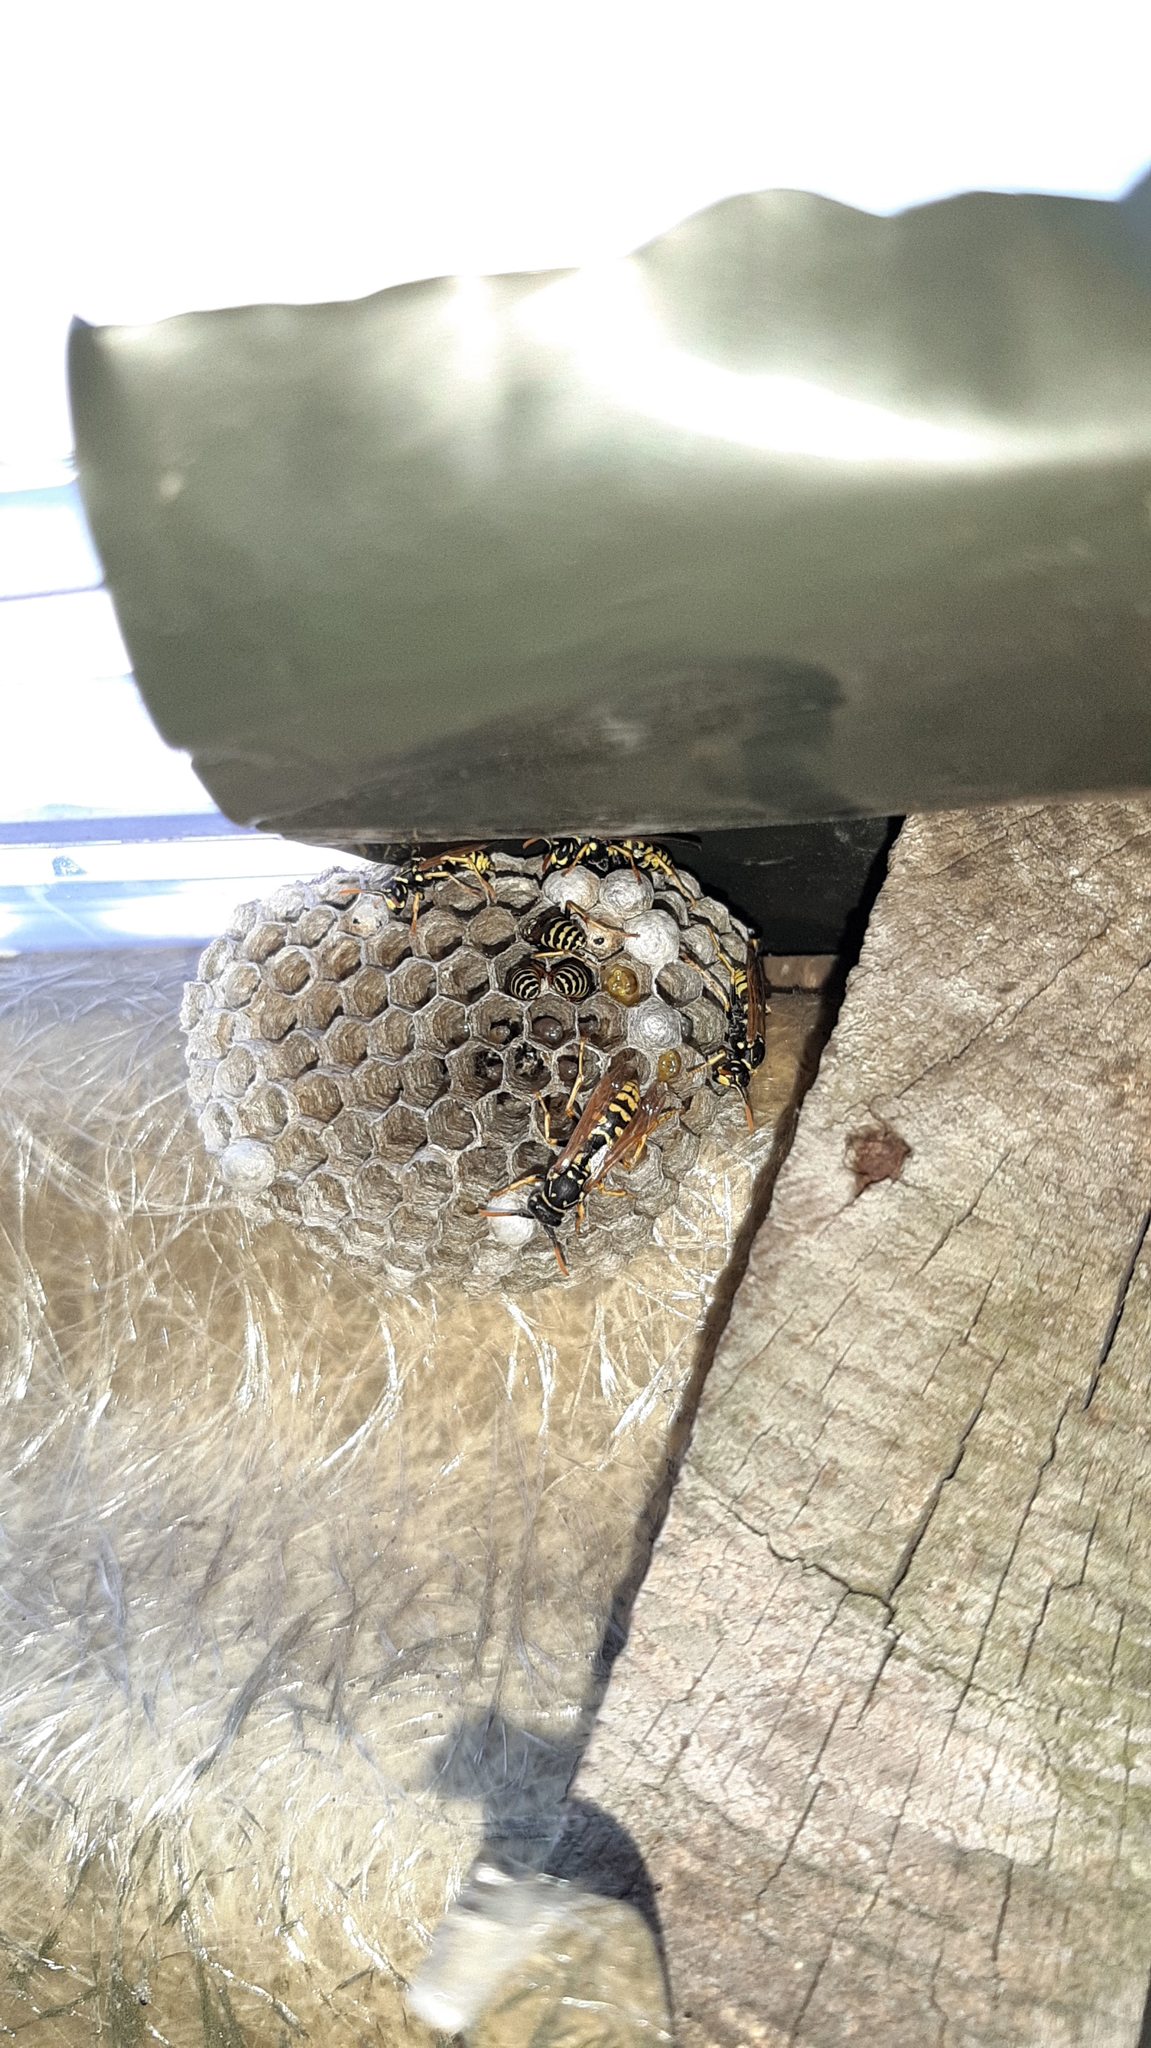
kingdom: Animalia
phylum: Arthropoda
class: Insecta
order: Hymenoptera
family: Eumenidae
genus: Polistes
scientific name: Polistes dominula
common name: Paper wasp
